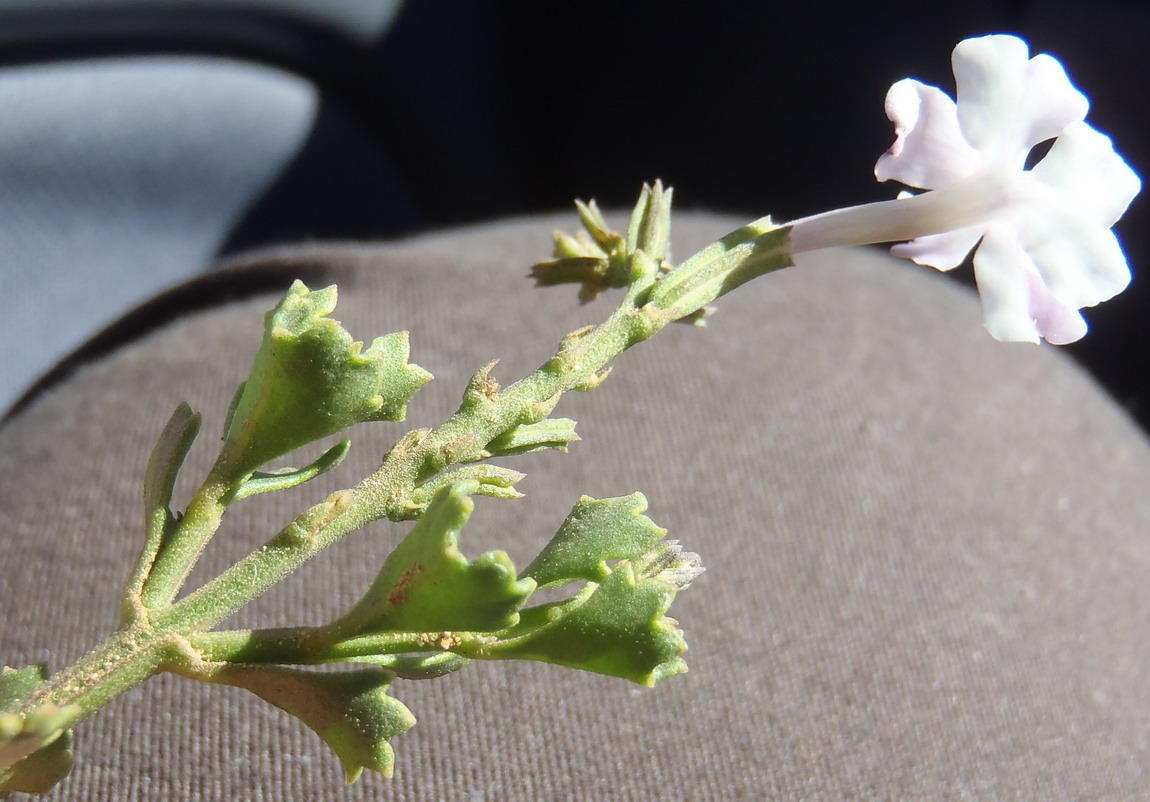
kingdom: Plantae
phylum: Tracheophyta
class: Magnoliopsida
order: Lamiales
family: Verbenaceae
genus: Chascanum
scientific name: Chascanum cuneifolium
